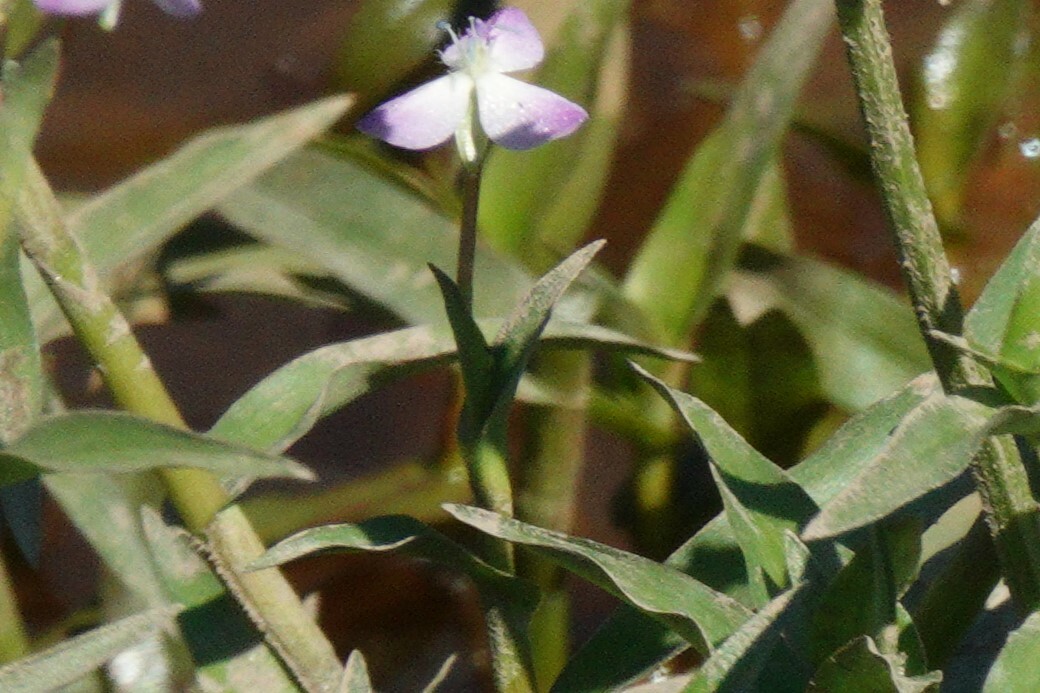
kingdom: Plantae
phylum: Tracheophyta
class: Liliopsida
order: Commelinales
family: Commelinaceae
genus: Murdannia
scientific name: Murdannia keisak
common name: Wartremoving herb
